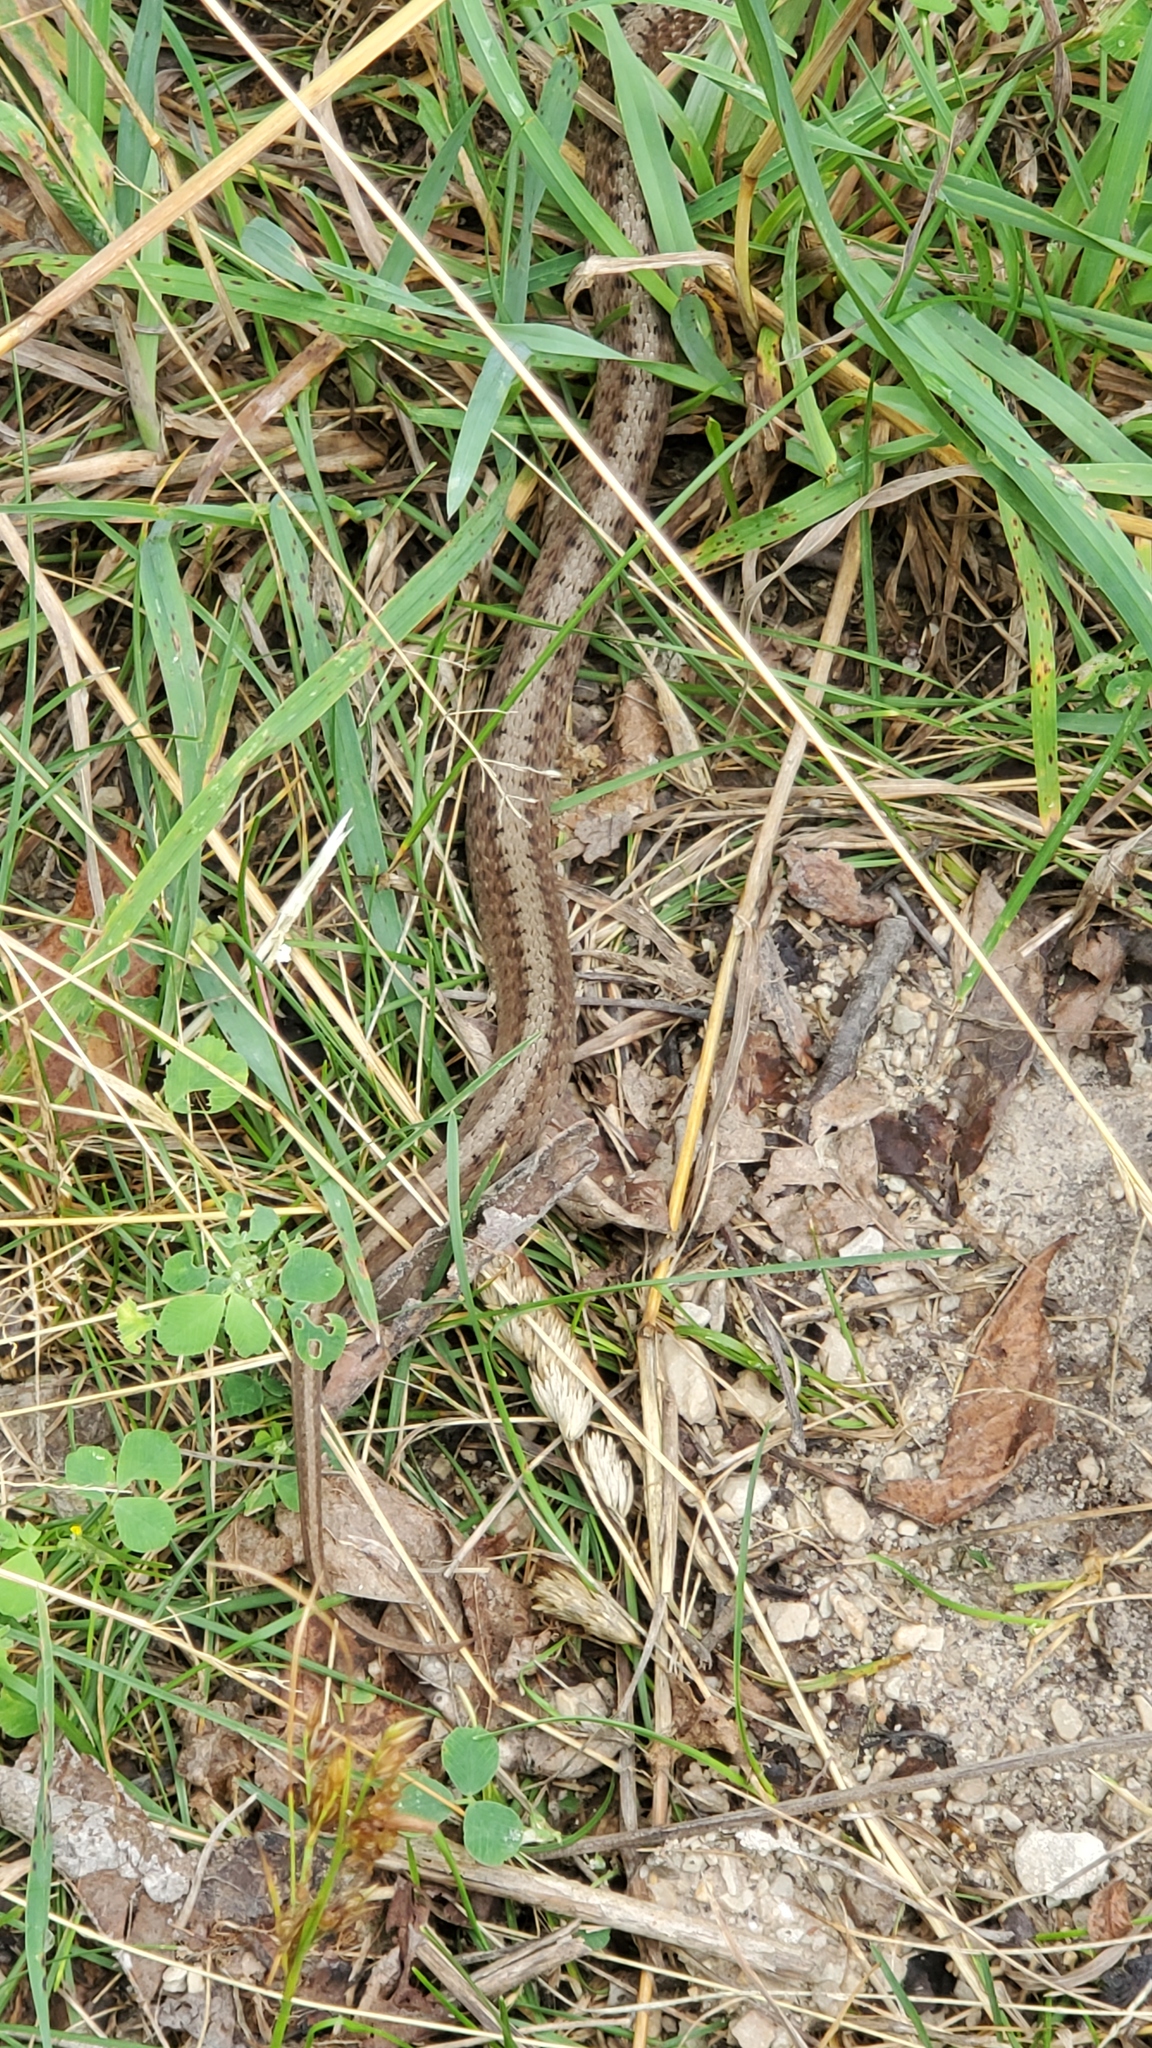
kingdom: Animalia
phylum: Chordata
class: Squamata
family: Colubridae
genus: Storeria
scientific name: Storeria dekayi
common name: (dekay’s) brown snake
